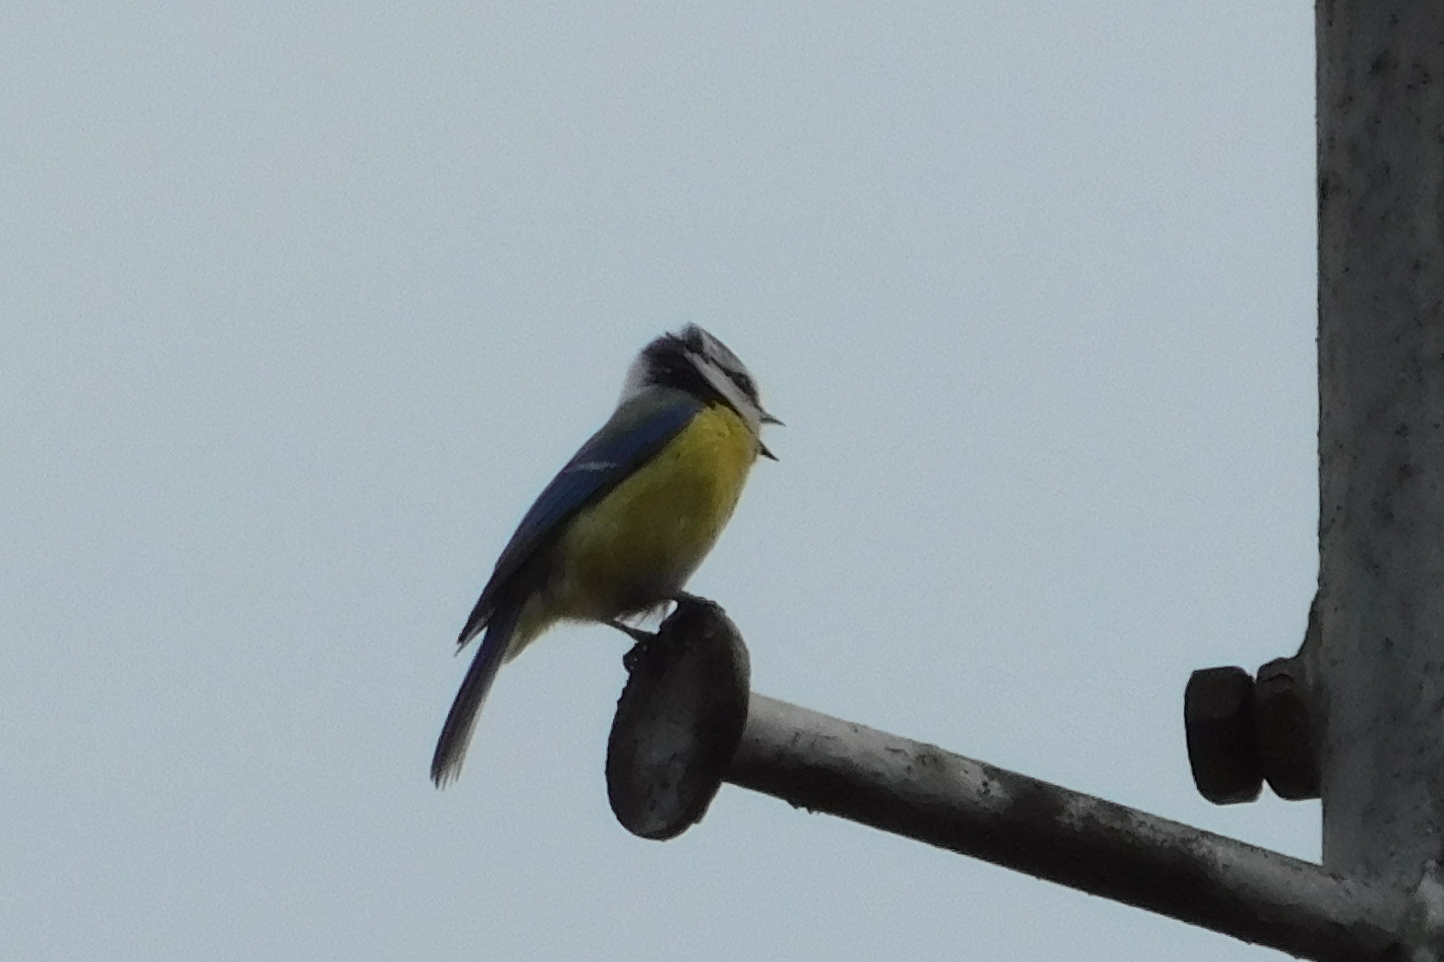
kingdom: Animalia
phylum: Chordata
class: Aves
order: Passeriformes
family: Paridae
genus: Cyanistes
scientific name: Cyanistes caeruleus
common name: Eurasian blue tit
